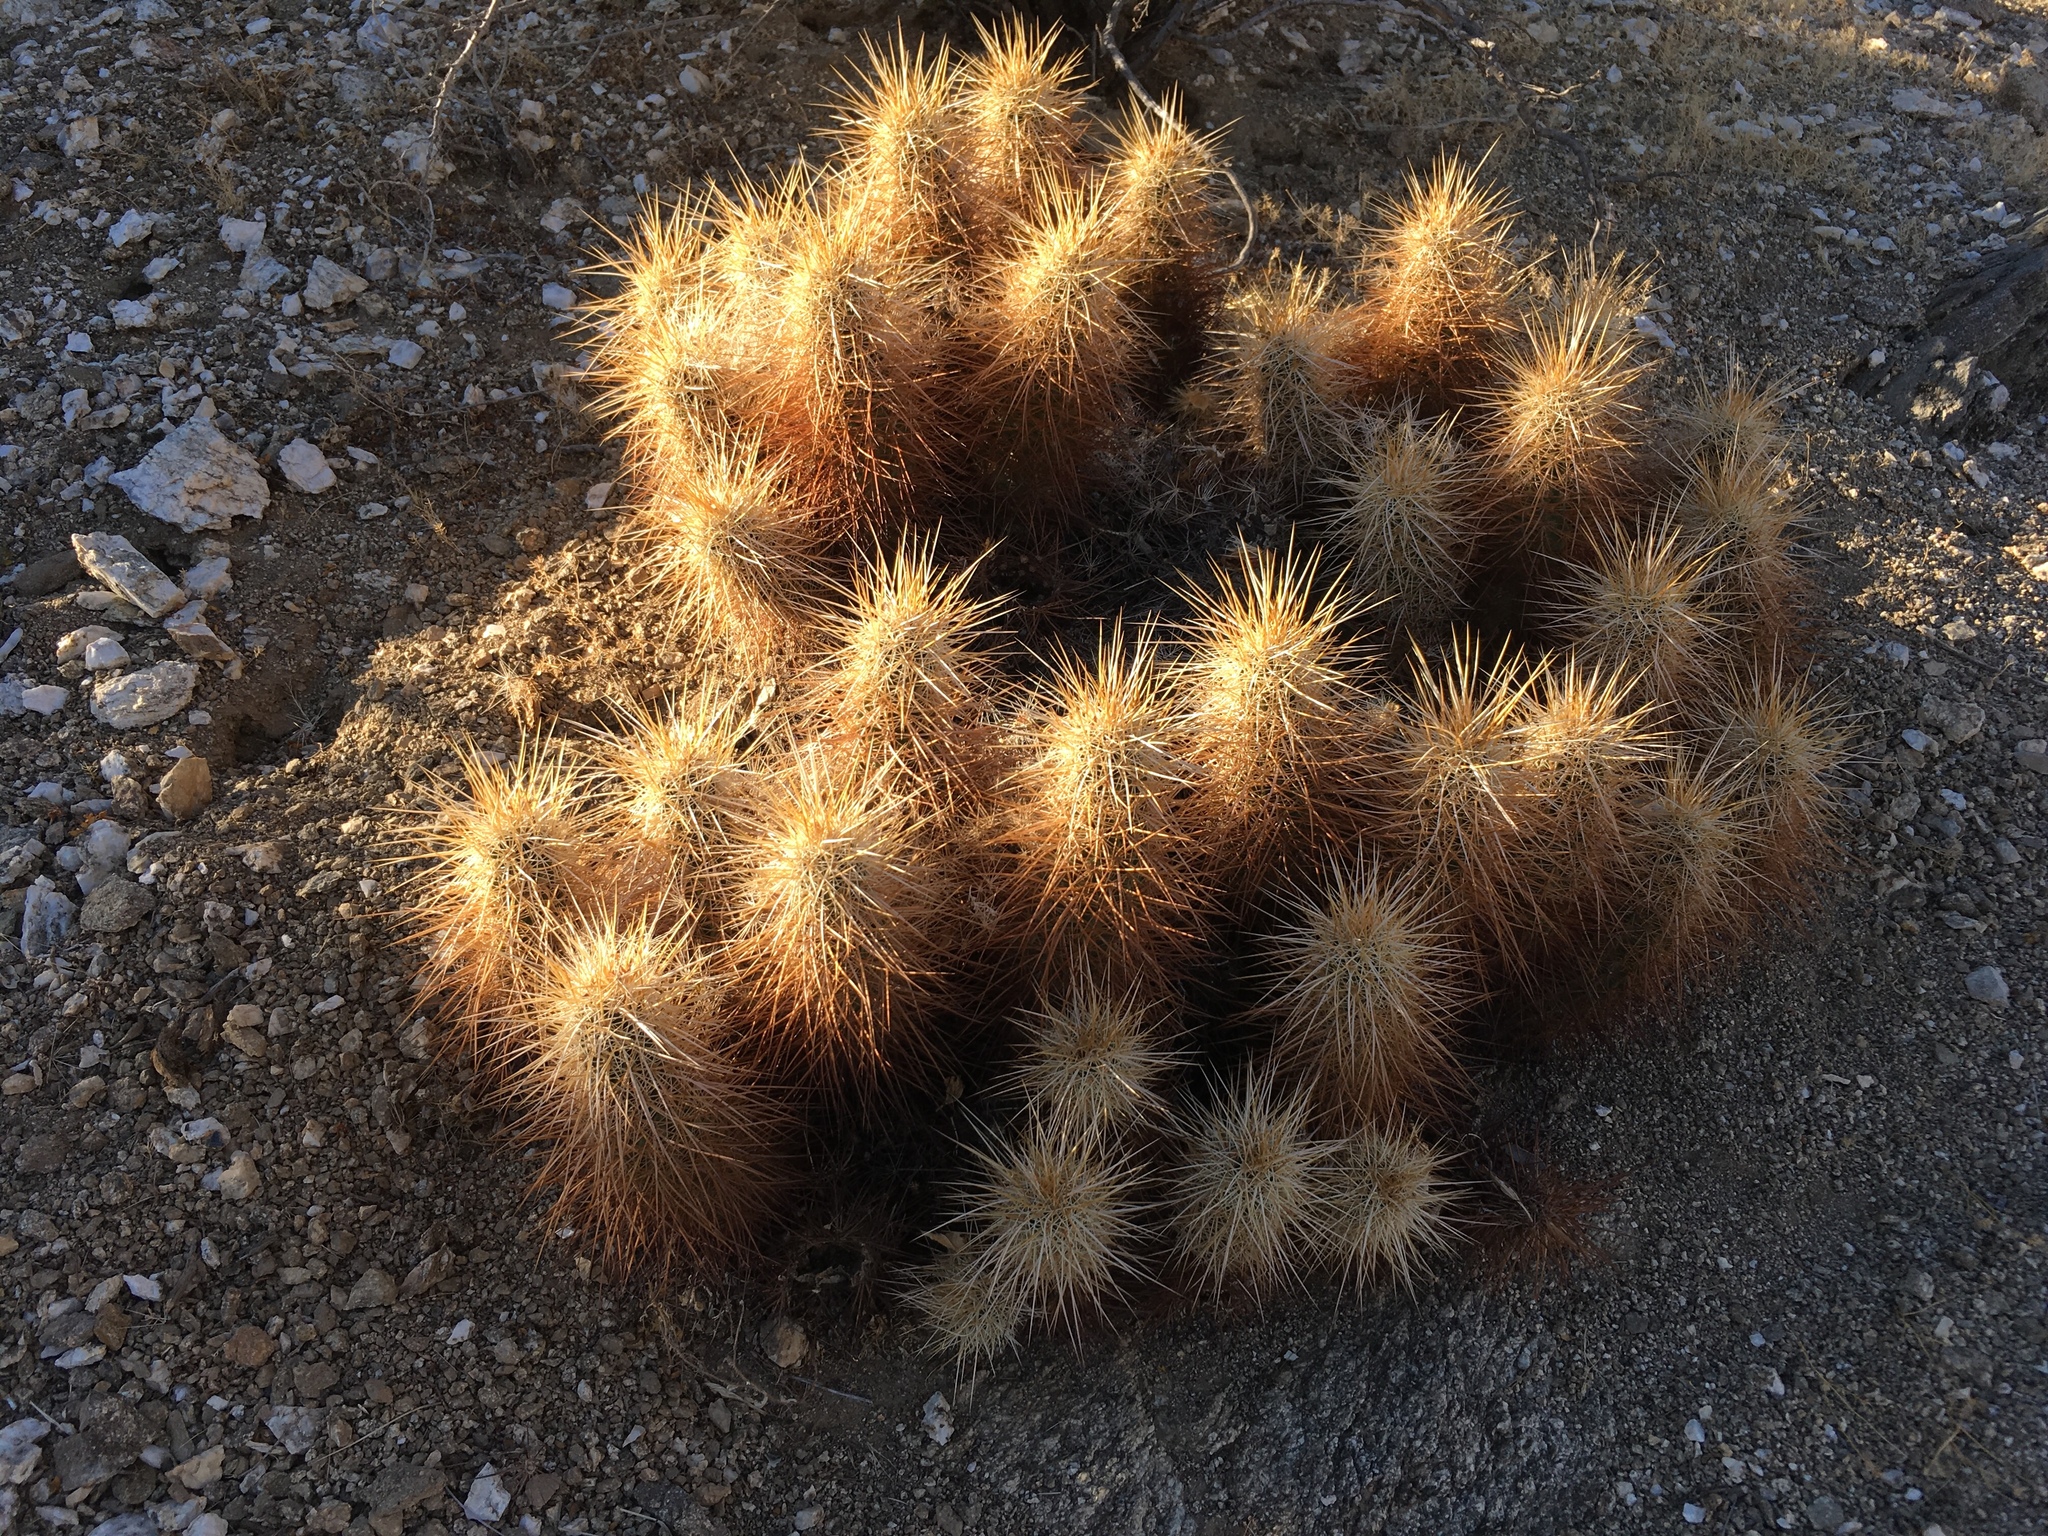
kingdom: Plantae
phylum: Tracheophyta
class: Magnoliopsida
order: Caryophyllales
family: Cactaceae
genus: Echinocereus
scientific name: Echinocereus engelmannii
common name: Engelmann's hedgehog cactus
